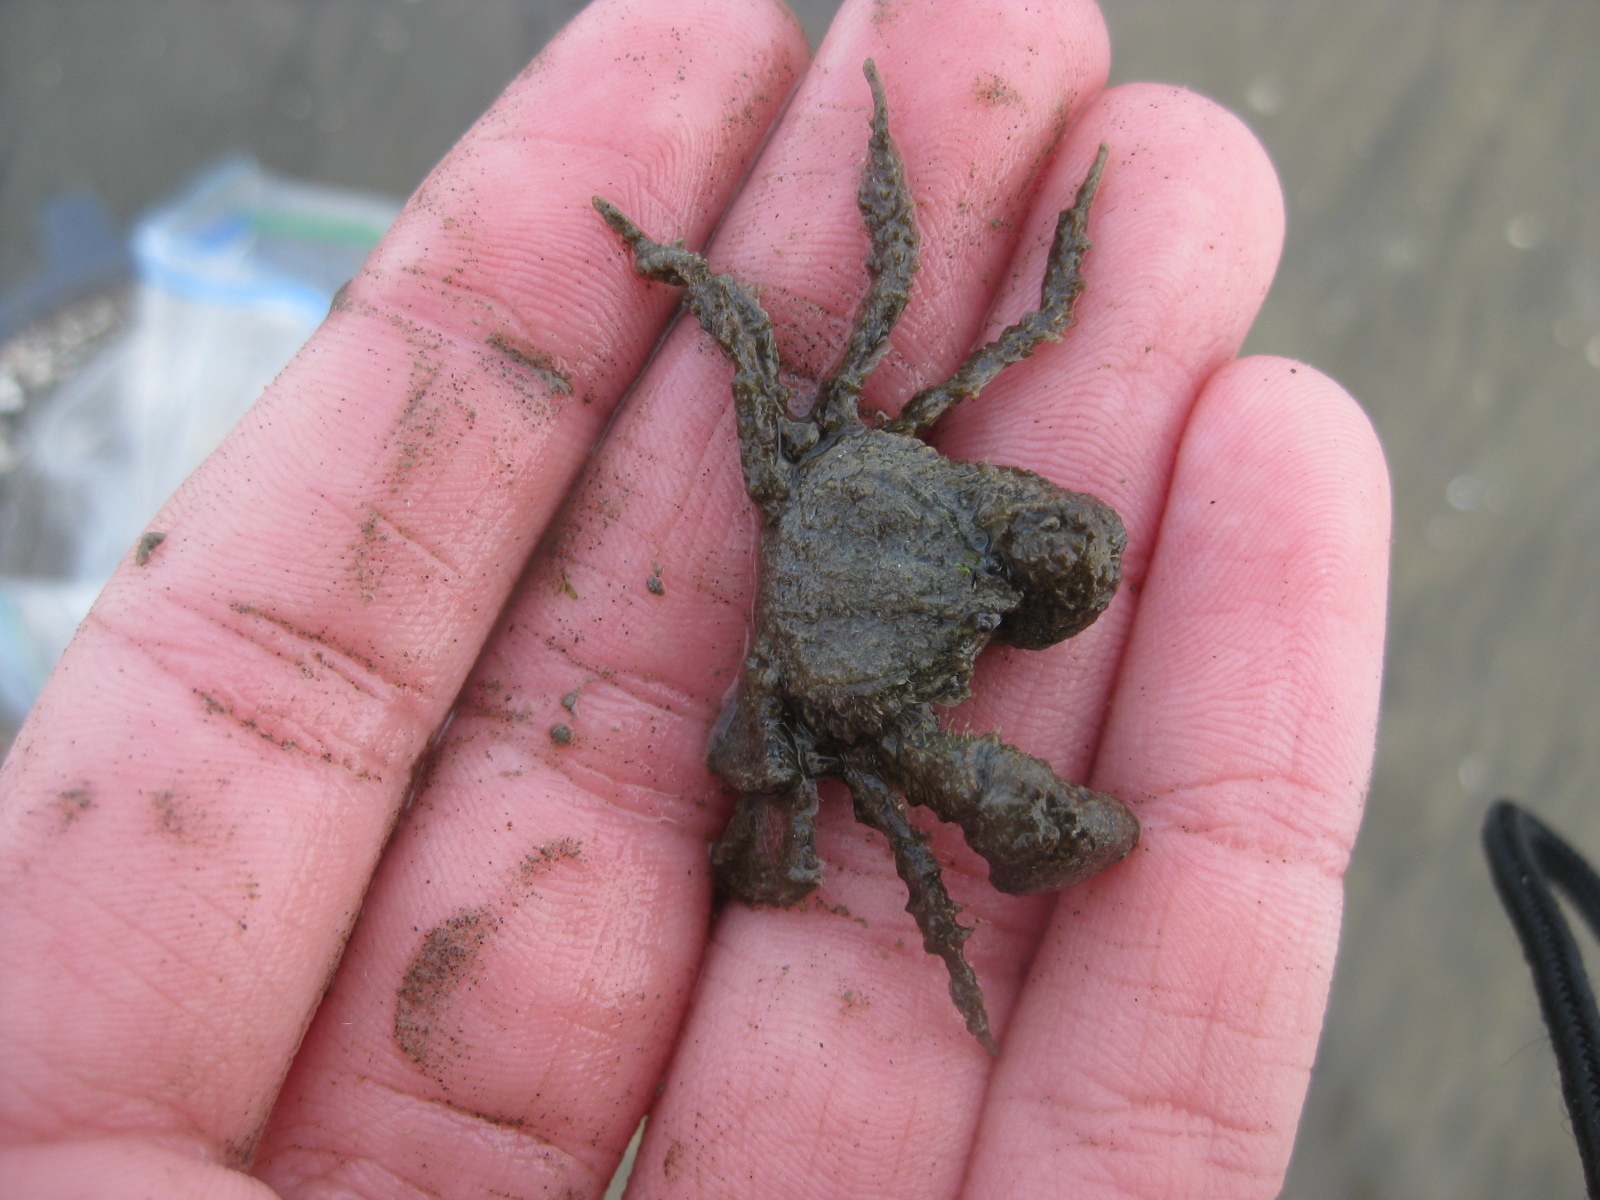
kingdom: Animalia
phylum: Arthropoda
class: Malacostraca
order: Decapoda
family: Hymenosomatidae
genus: Halicarcinus
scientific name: Halicarcinus whitei
